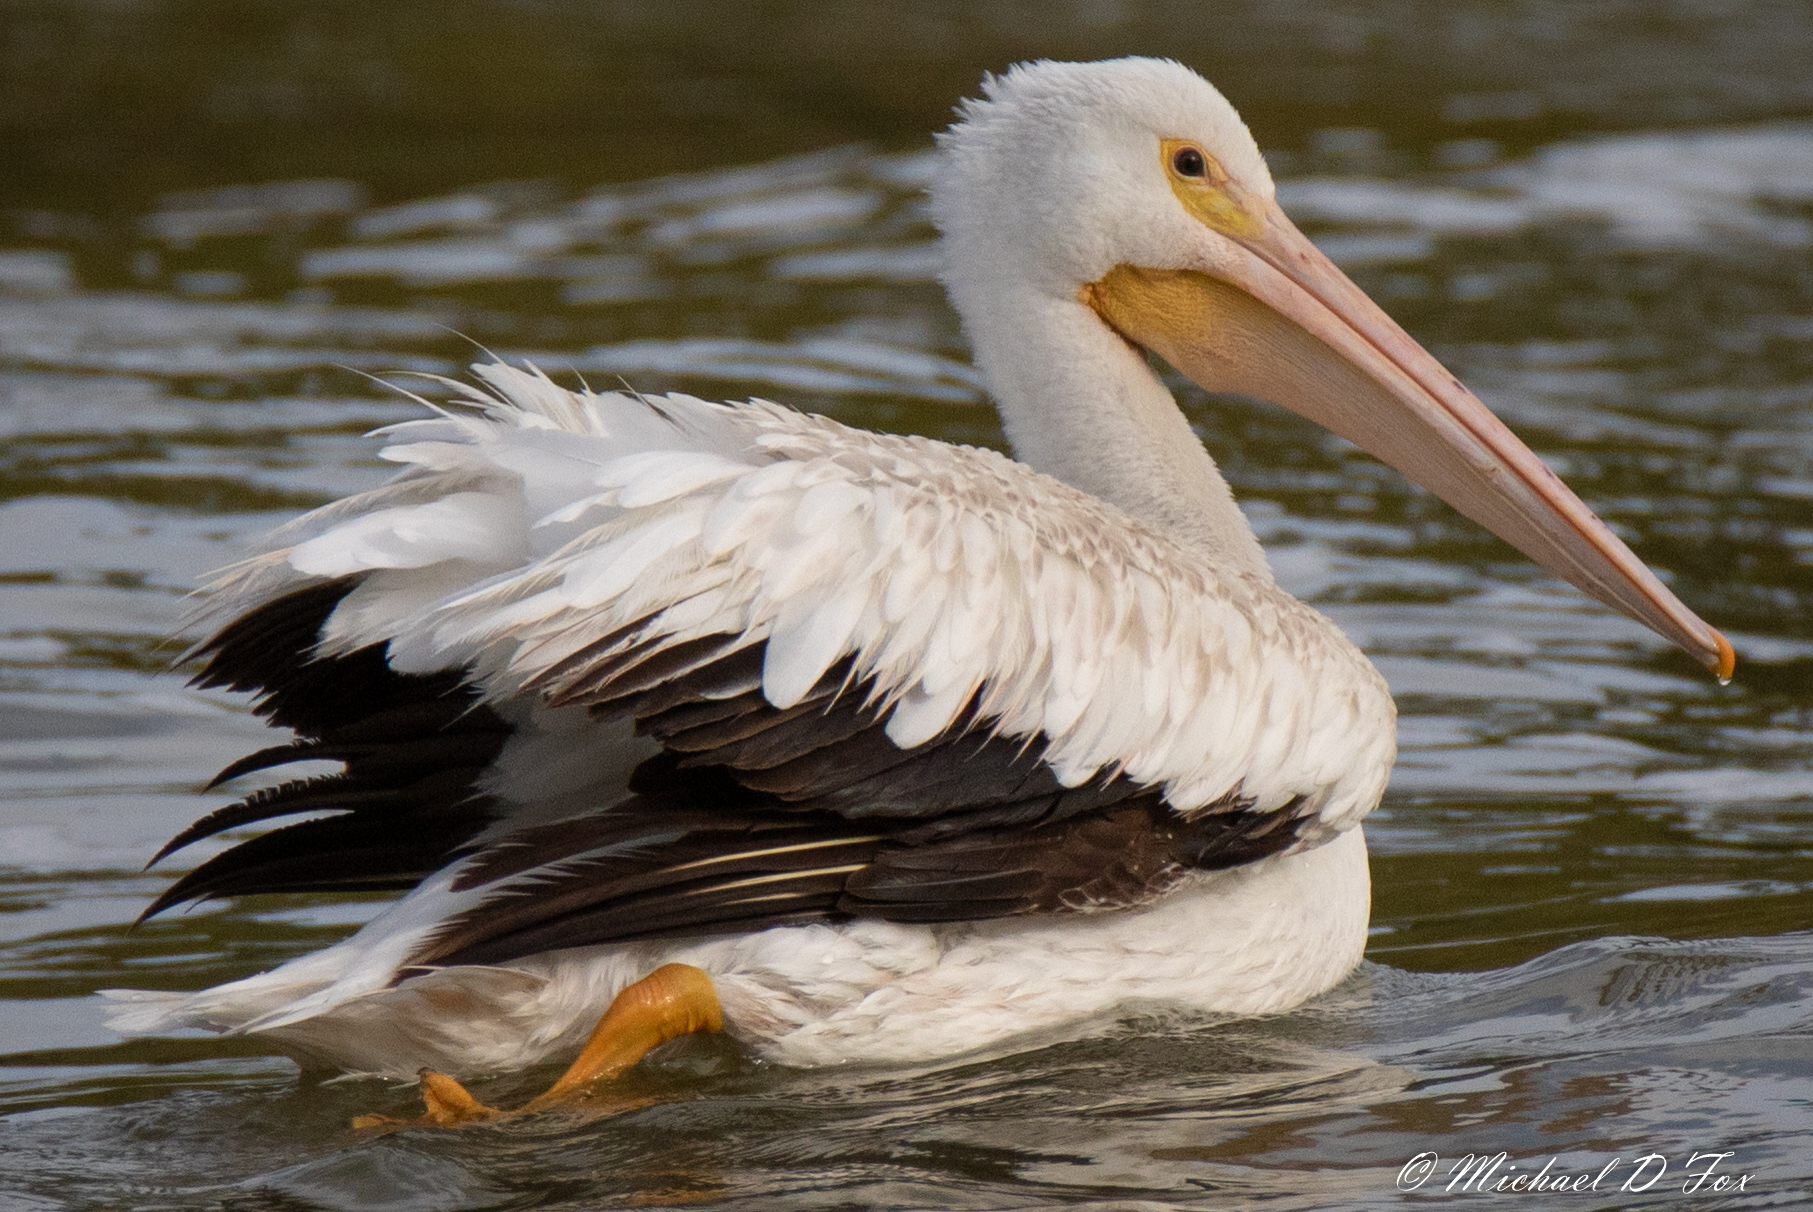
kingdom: Animalia
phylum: Chordata
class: Aves
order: Pelecaniformes
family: Pelecanidae
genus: Pelecanus
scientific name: Pelecanus erythrorhynchos
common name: American white pelican
